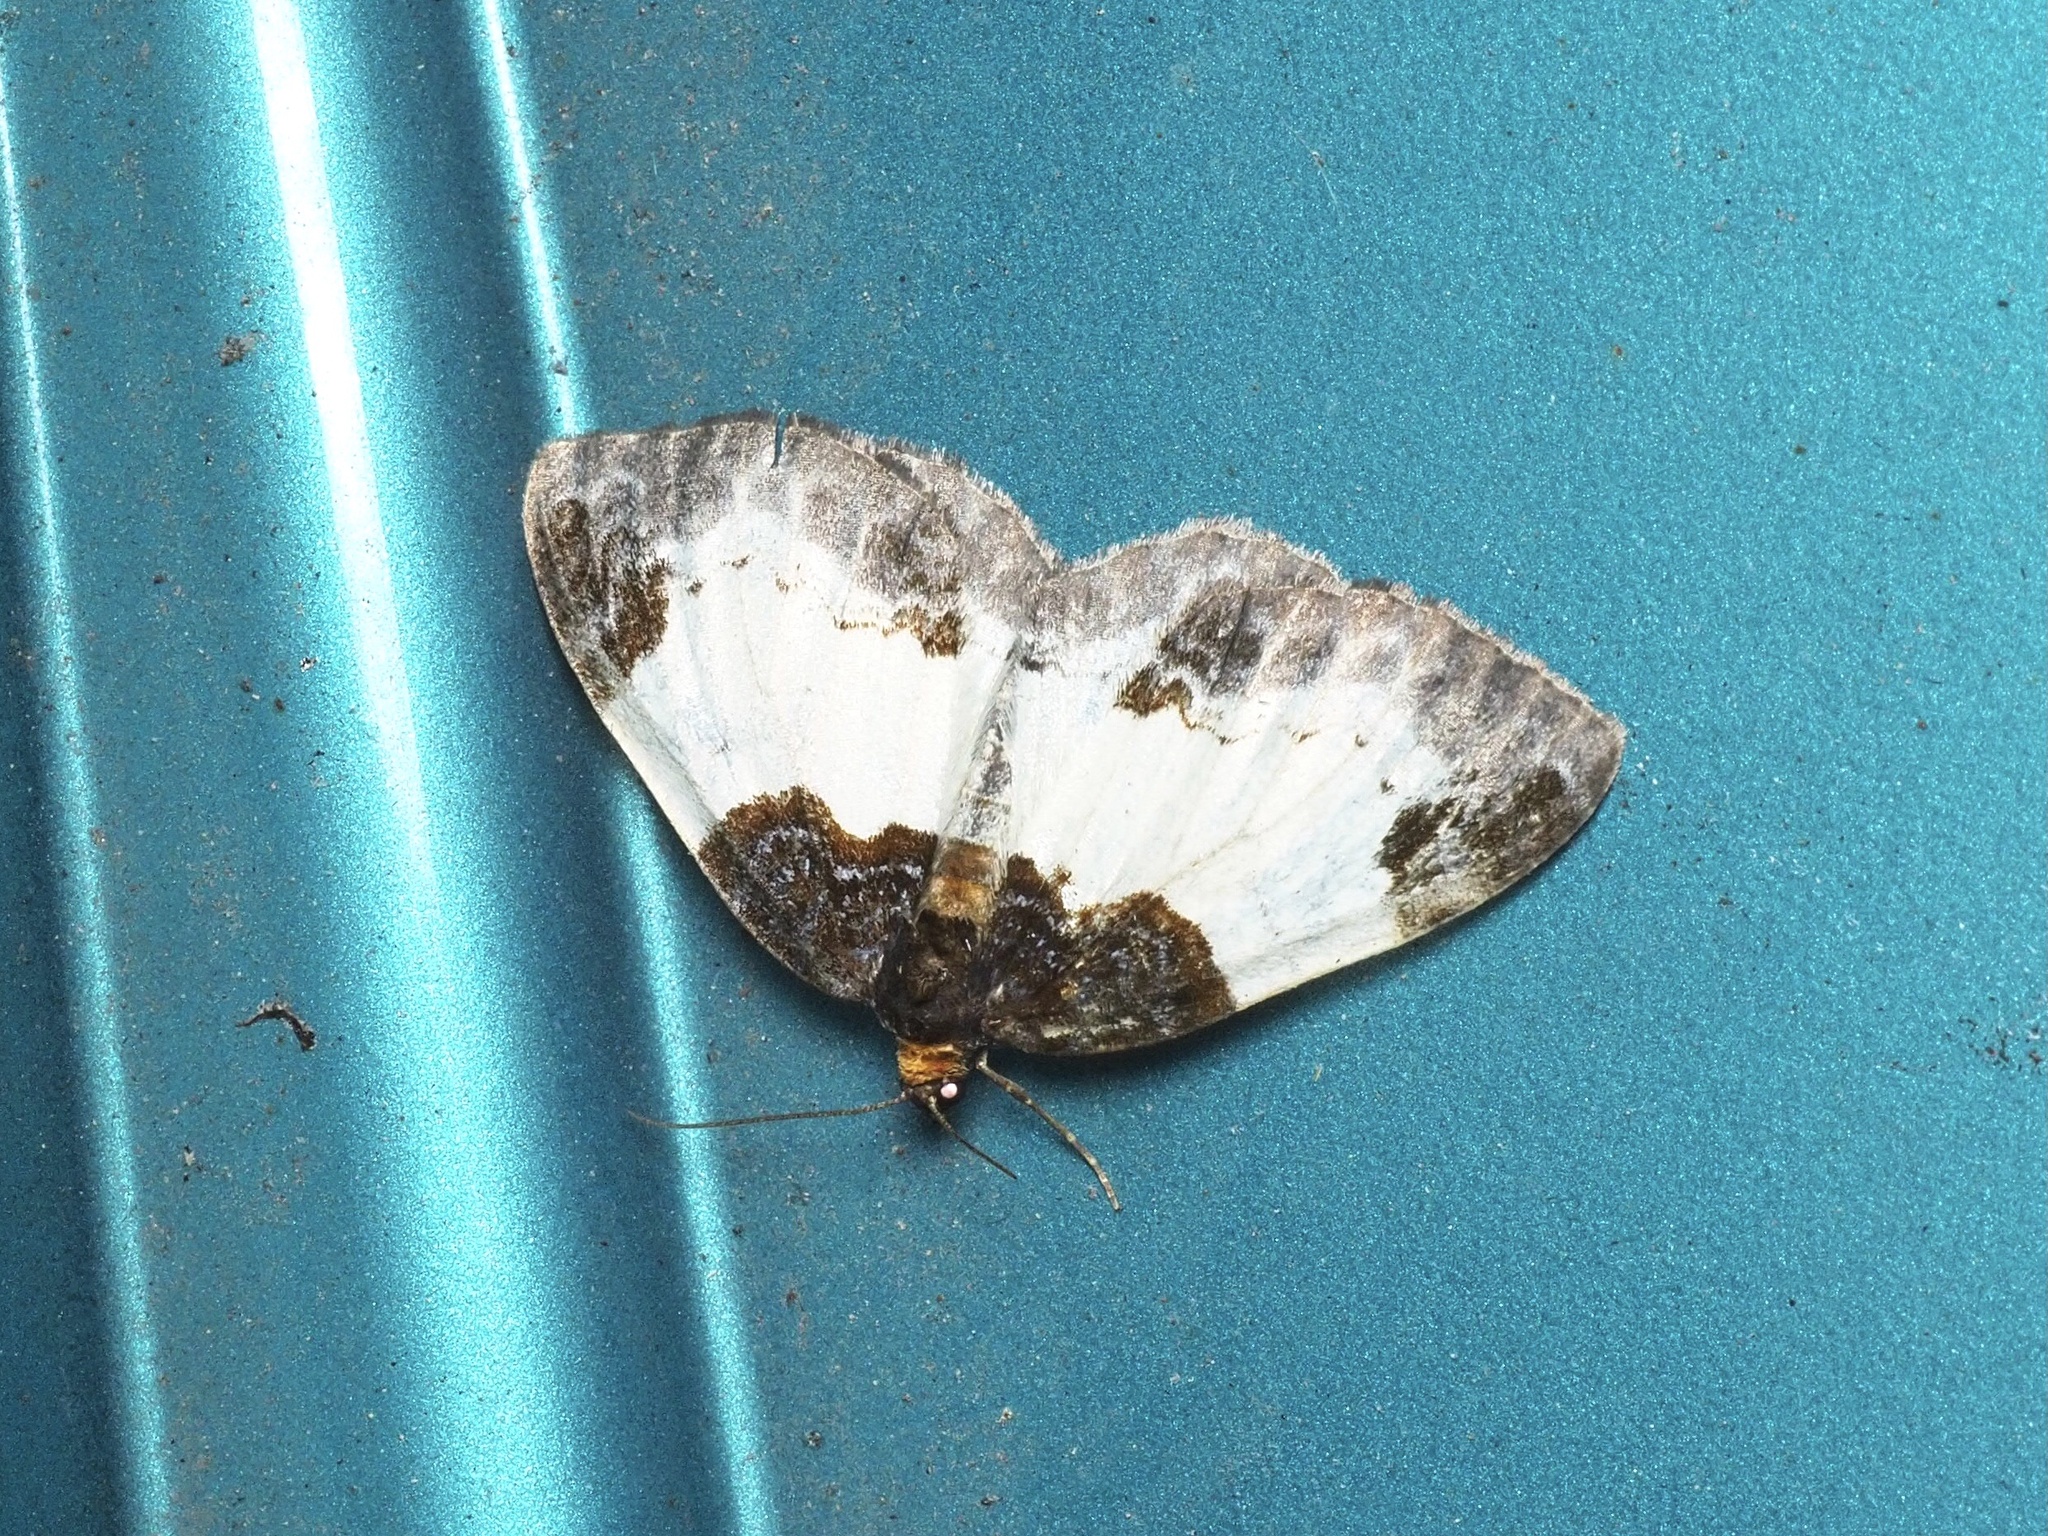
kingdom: Animalia
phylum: Arthropoda
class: Insecta
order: Lepidoptera
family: Geometridae
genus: Mesoleuca
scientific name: Mesoleuca albicillata
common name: Beautiful carpet
